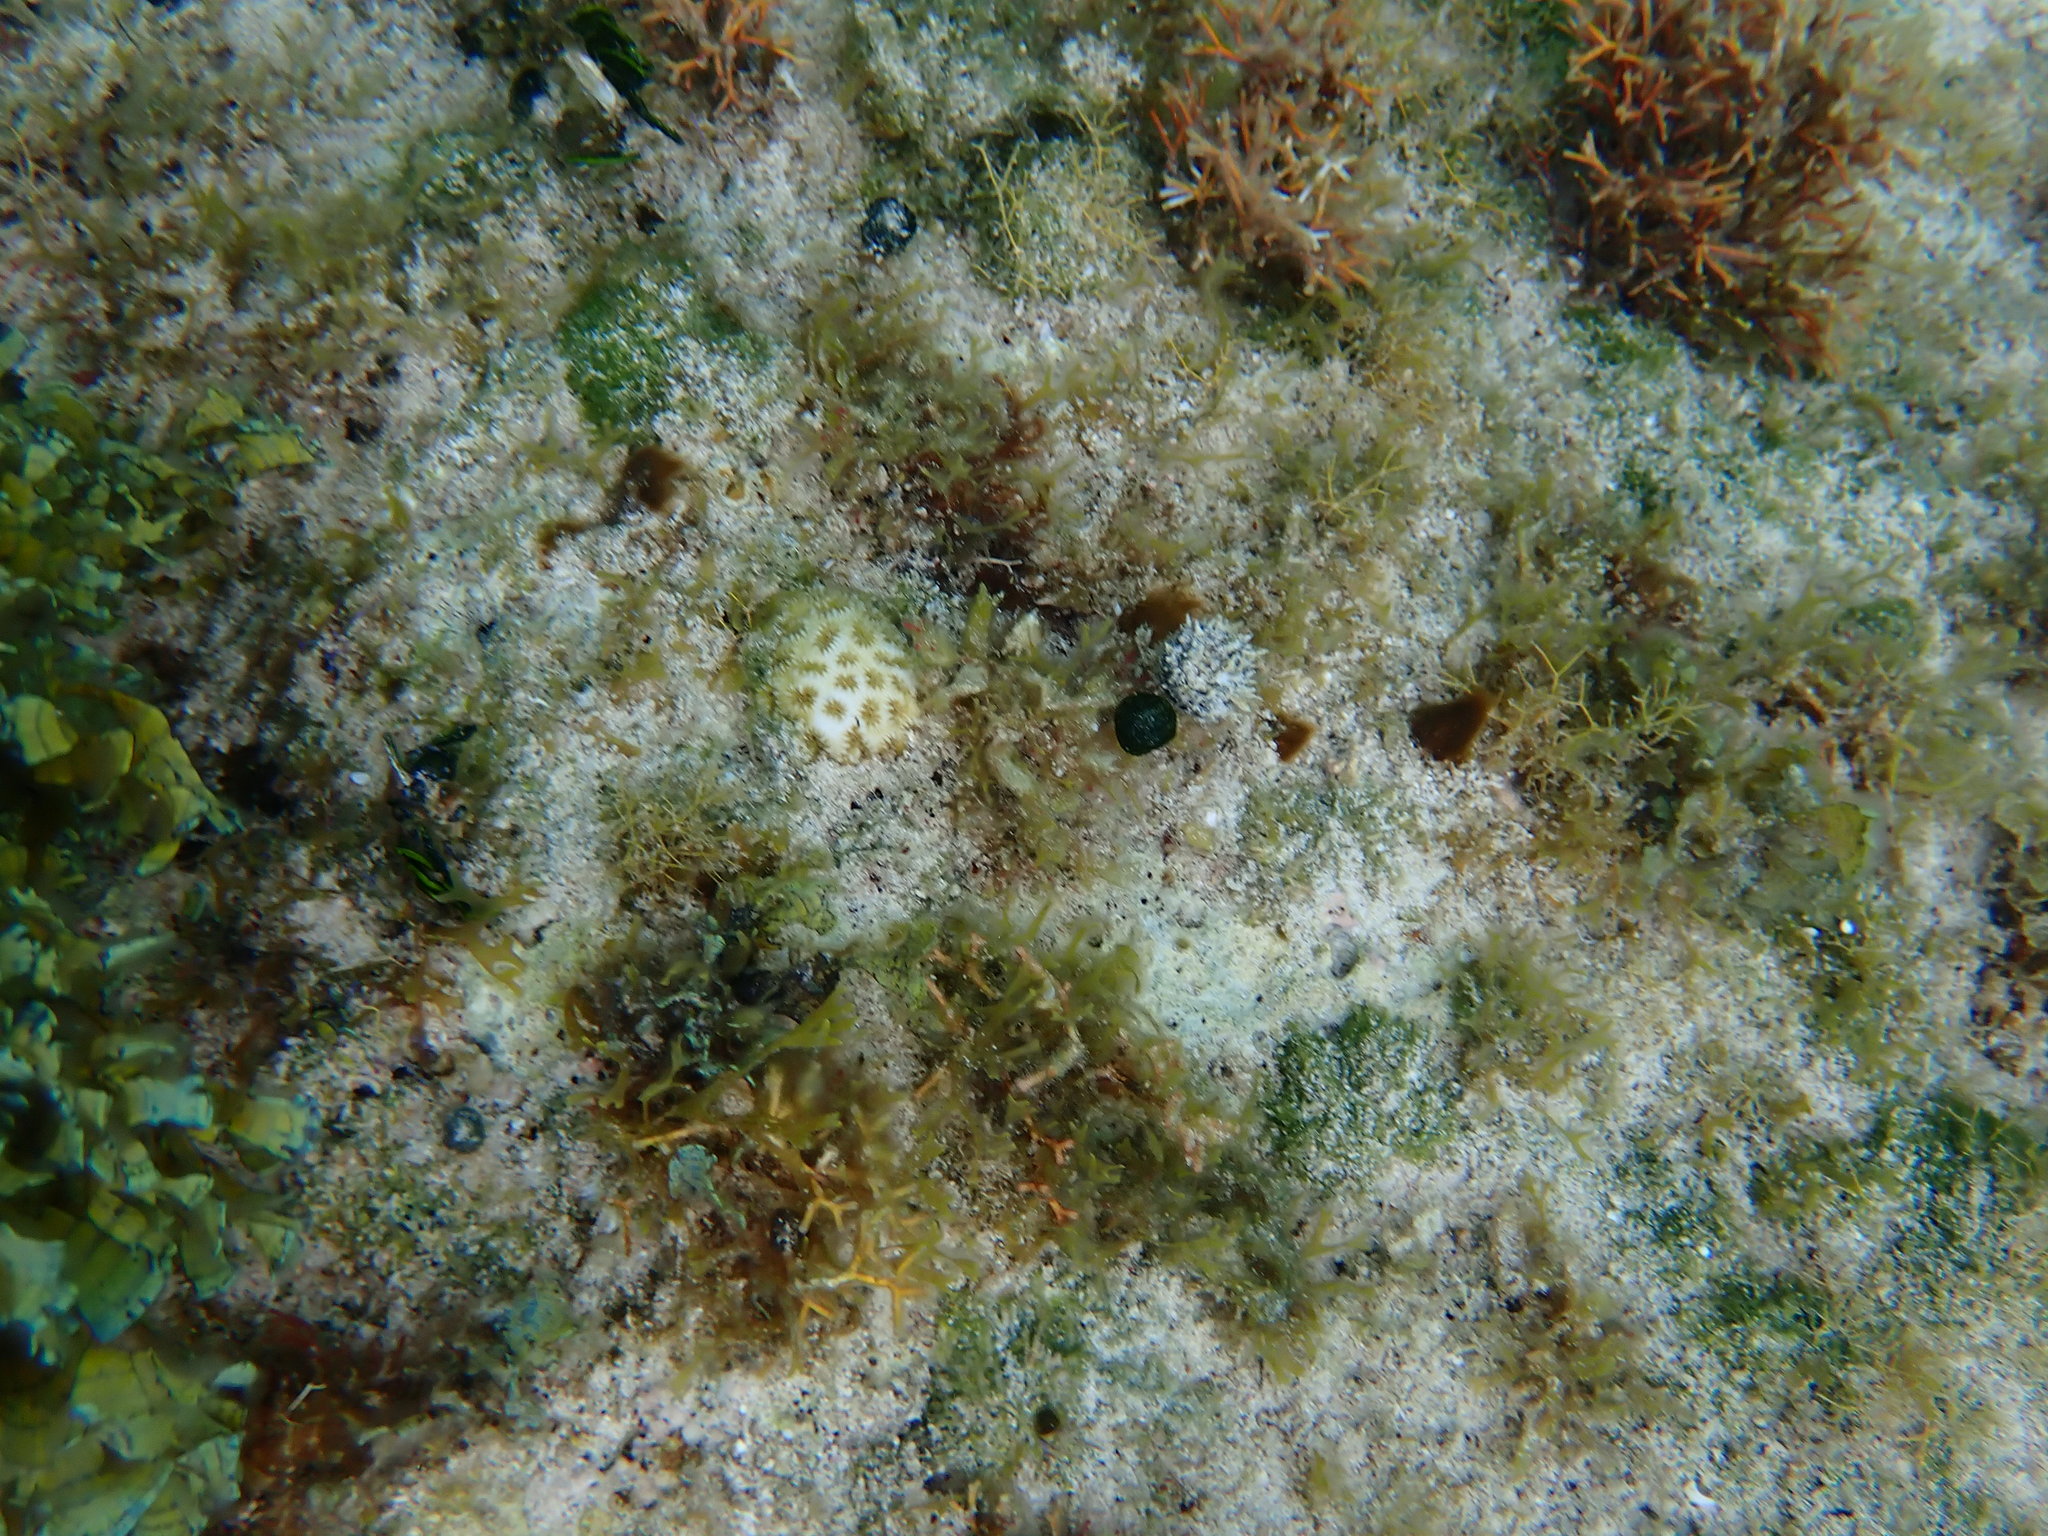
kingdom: Animalia
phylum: Cnidaria
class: Anthozoa
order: Scleractinia
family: Faviidae
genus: Favia
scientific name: Favia fragum
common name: Golfball coral
